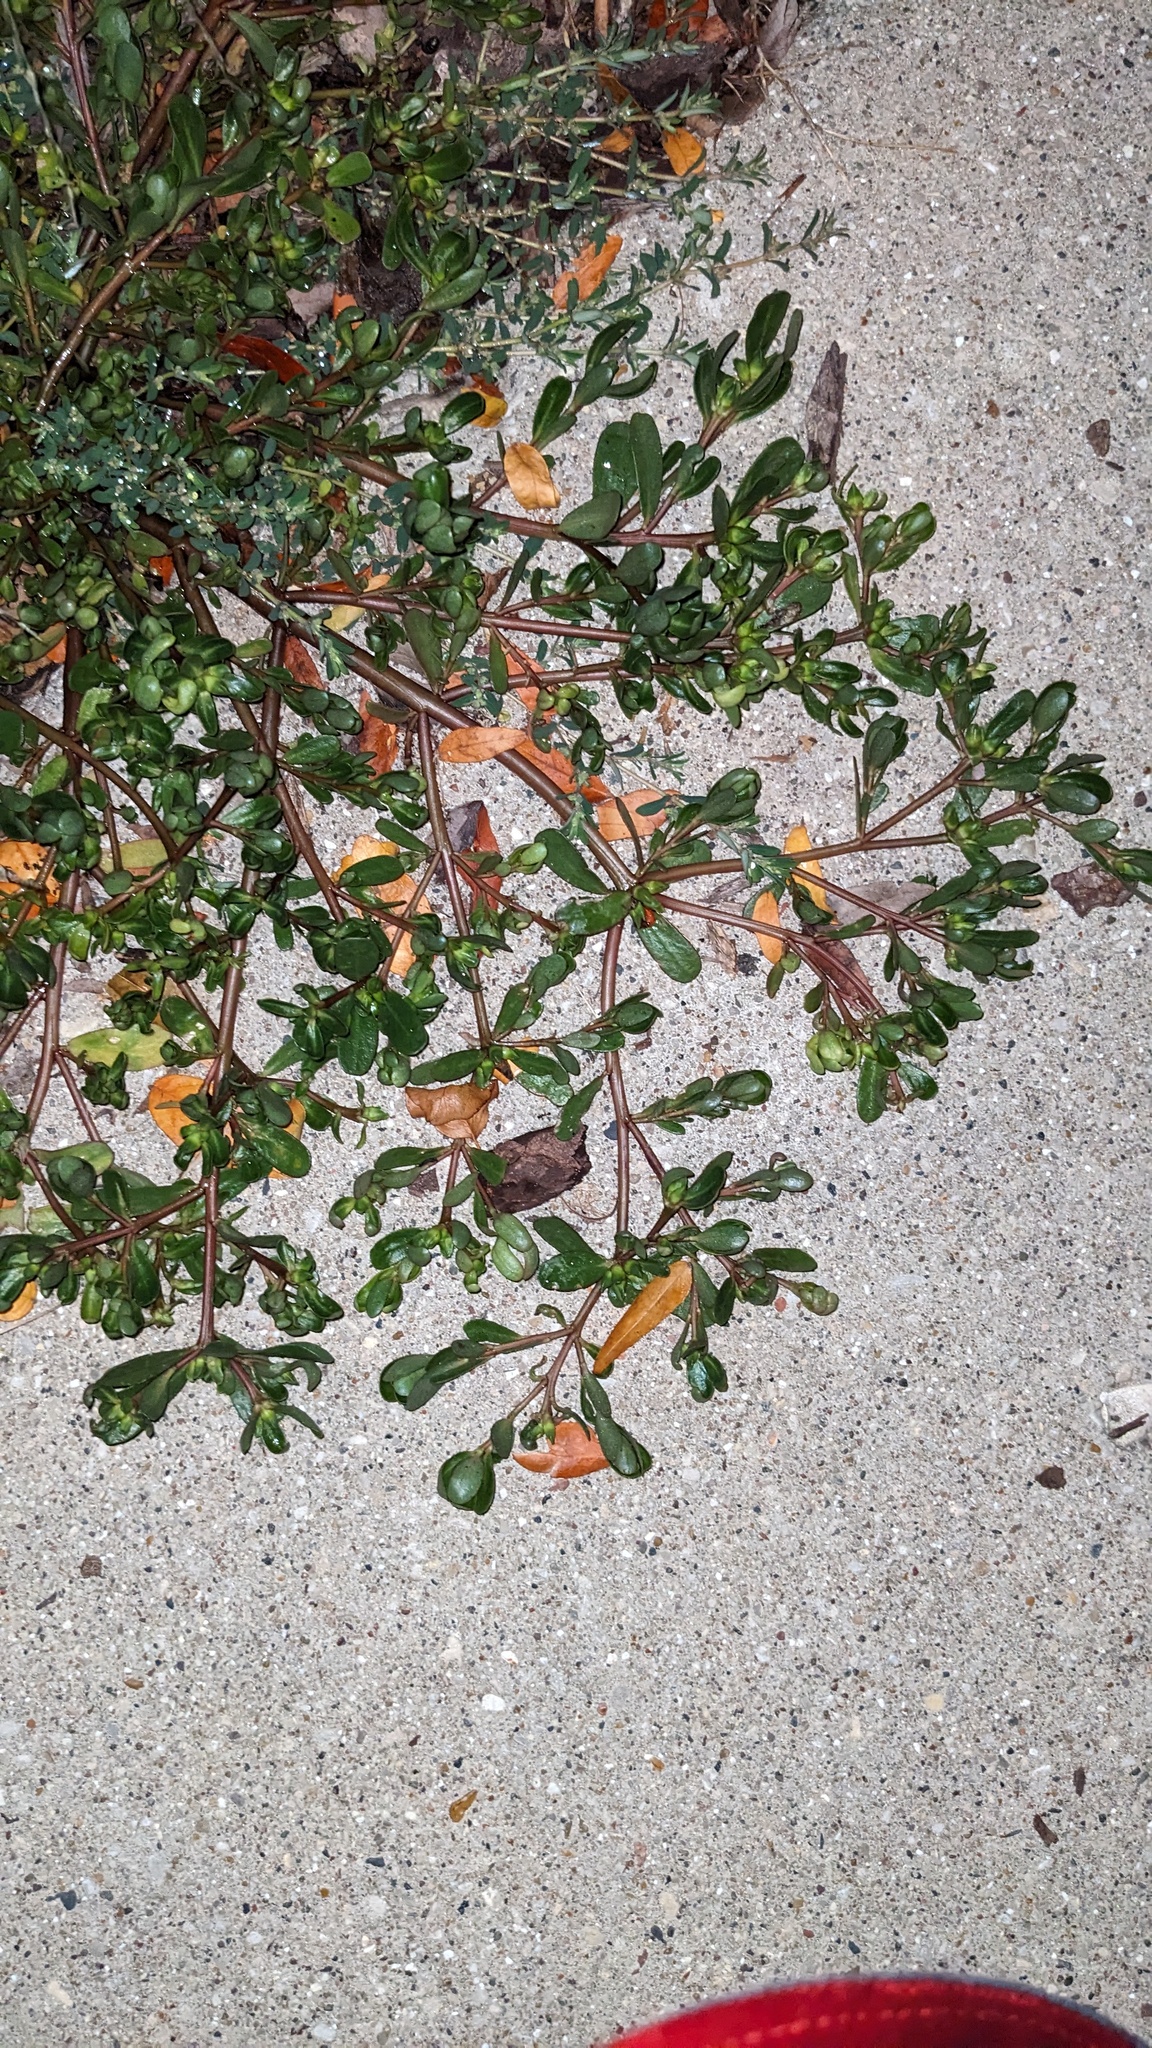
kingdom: Plantae
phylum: Tracheophyta
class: Magnoliopsida
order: Caryophyllales
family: Portulacaceae
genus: Portulaca
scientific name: Portulaca oleracea
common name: Common purslane
